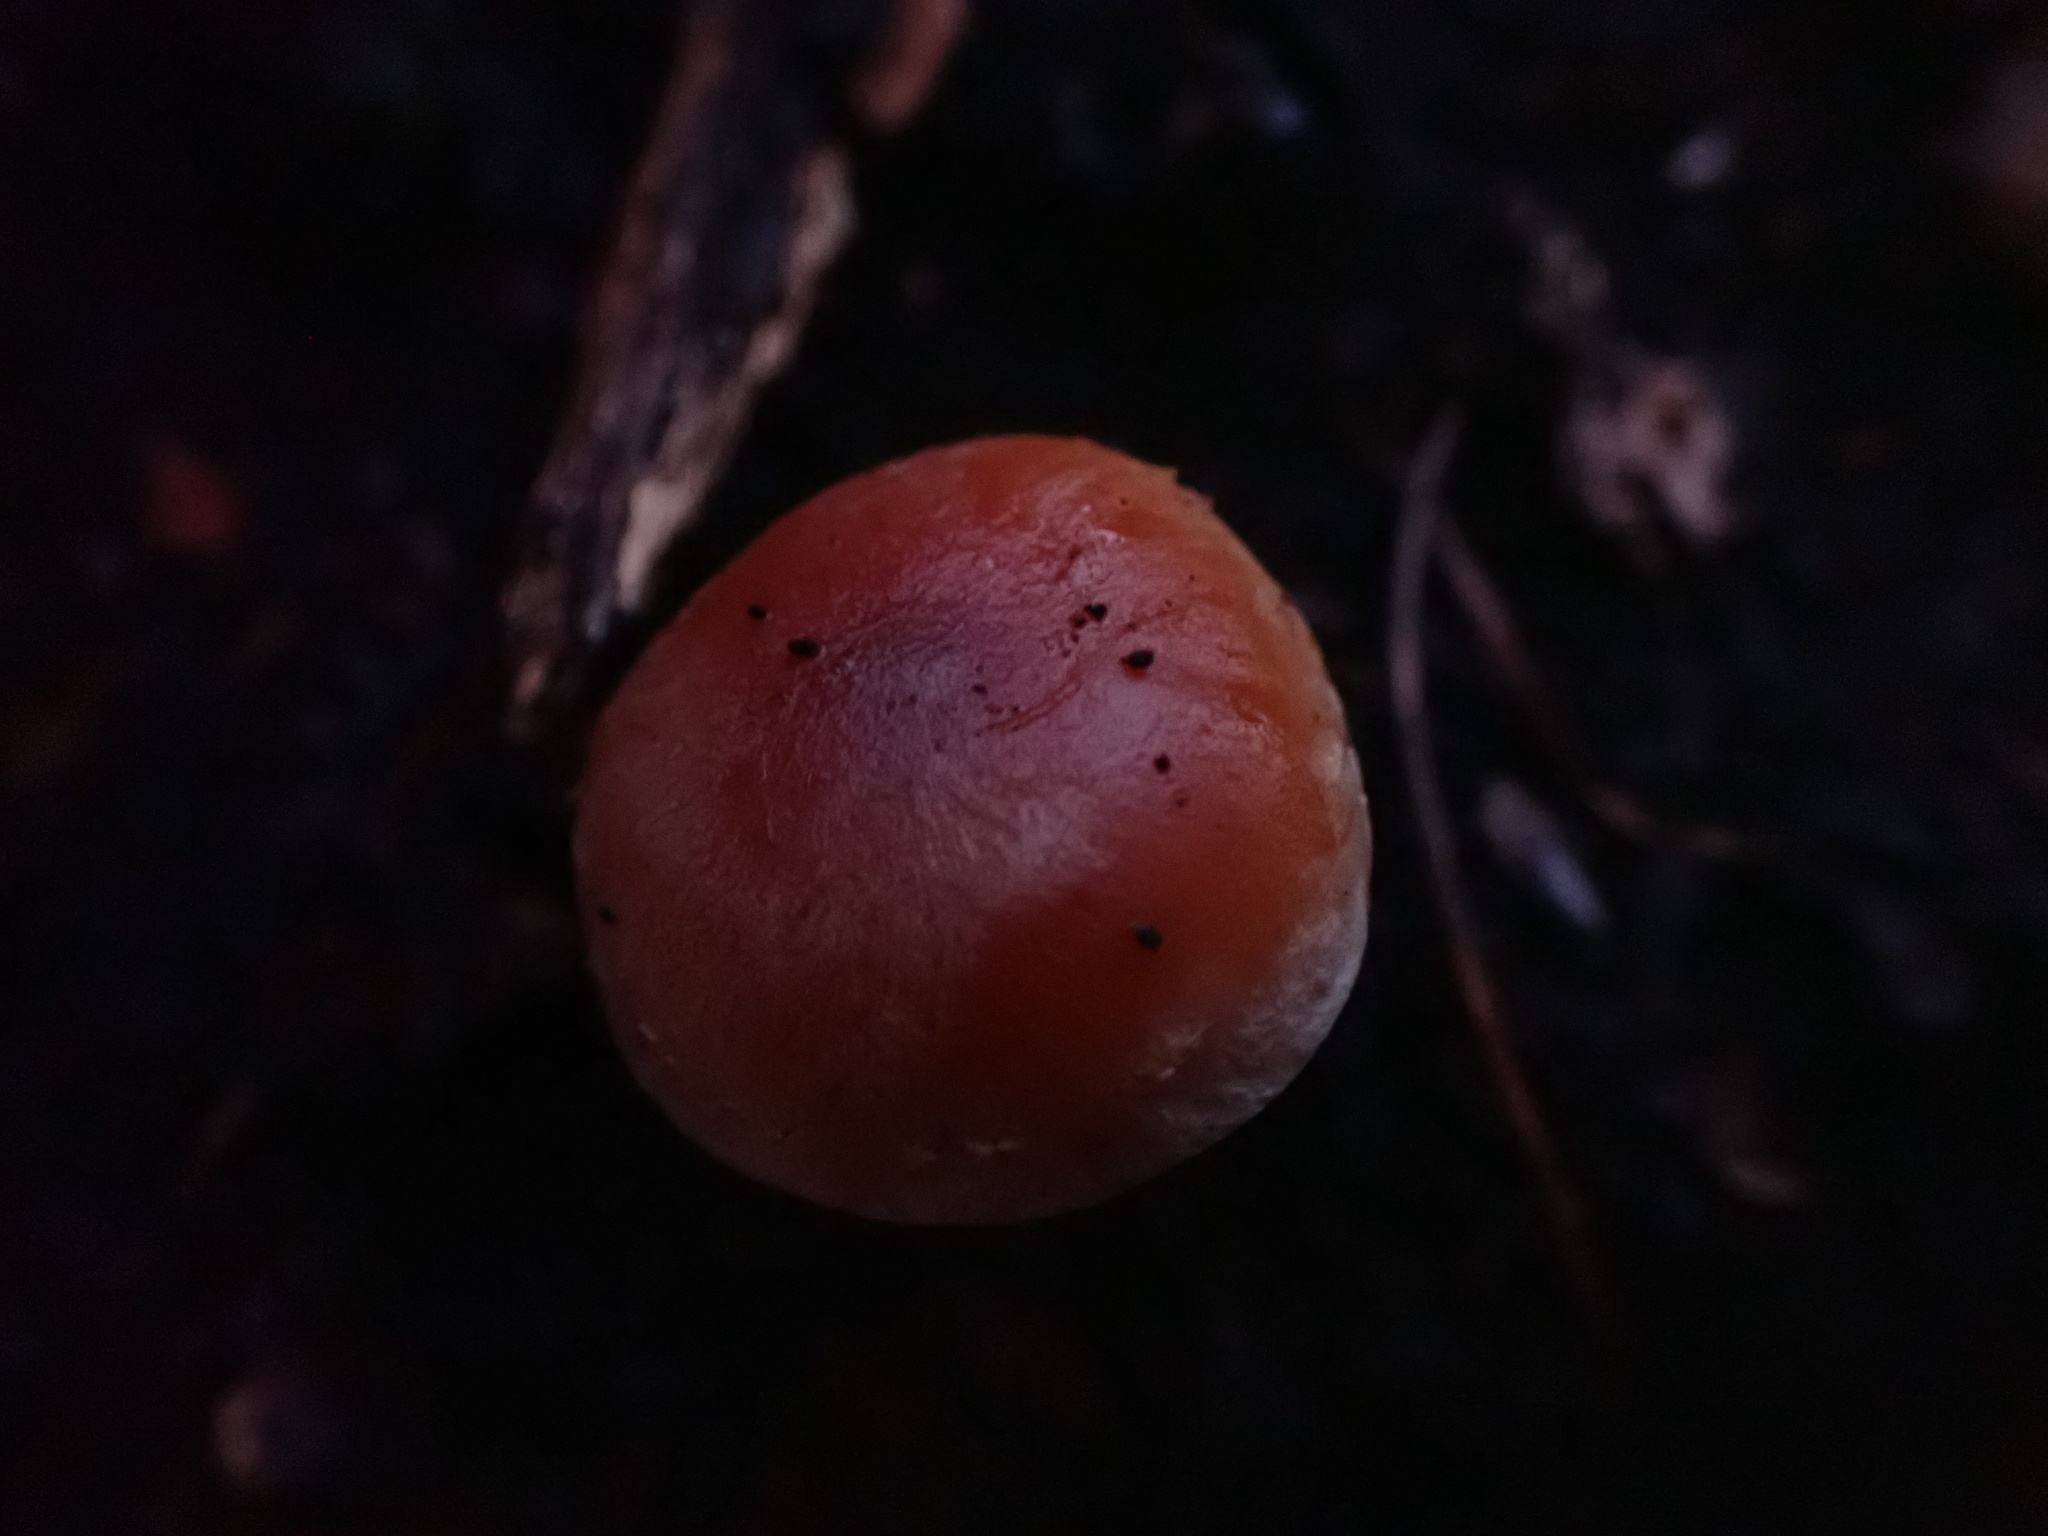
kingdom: Fungi
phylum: Basidiomycota
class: Agaricomycetes
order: Agaricales
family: Strophariaceae
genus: Hypholoma
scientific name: Hypholoma lateritium
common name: Brick caps
